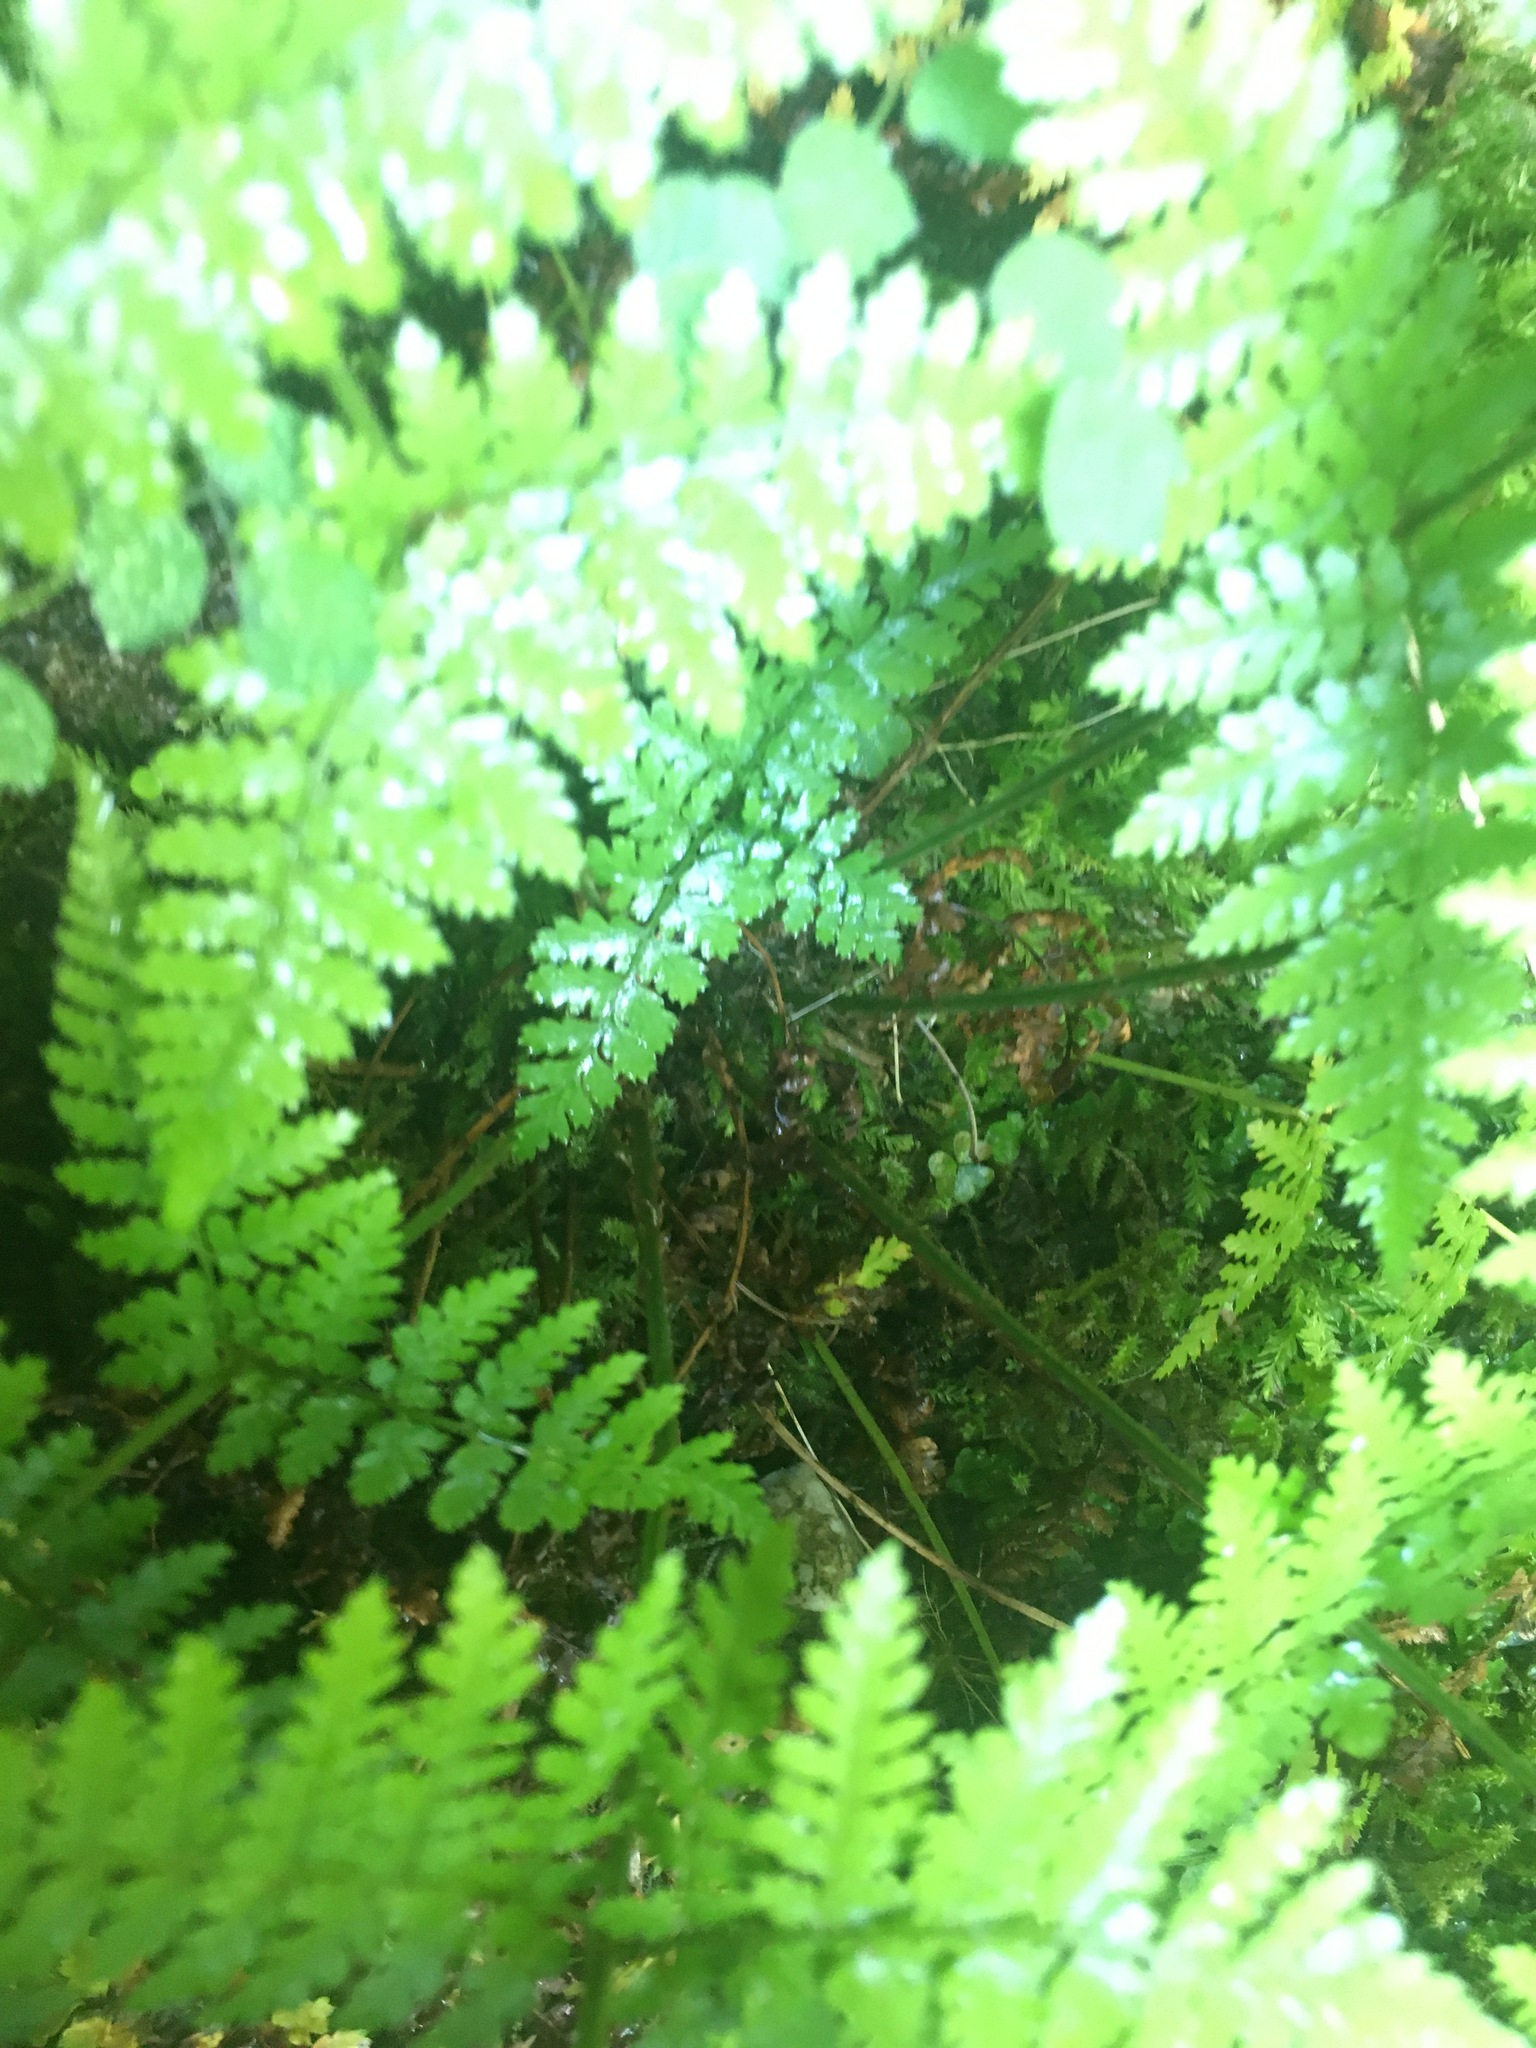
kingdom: Plantae
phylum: Tracheophyta
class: Polypodiopsida
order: Polypodiales
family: Dryopteridaceae
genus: Dryopteris
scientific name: Dryopteris intermedia
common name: Evergreen wood fern
